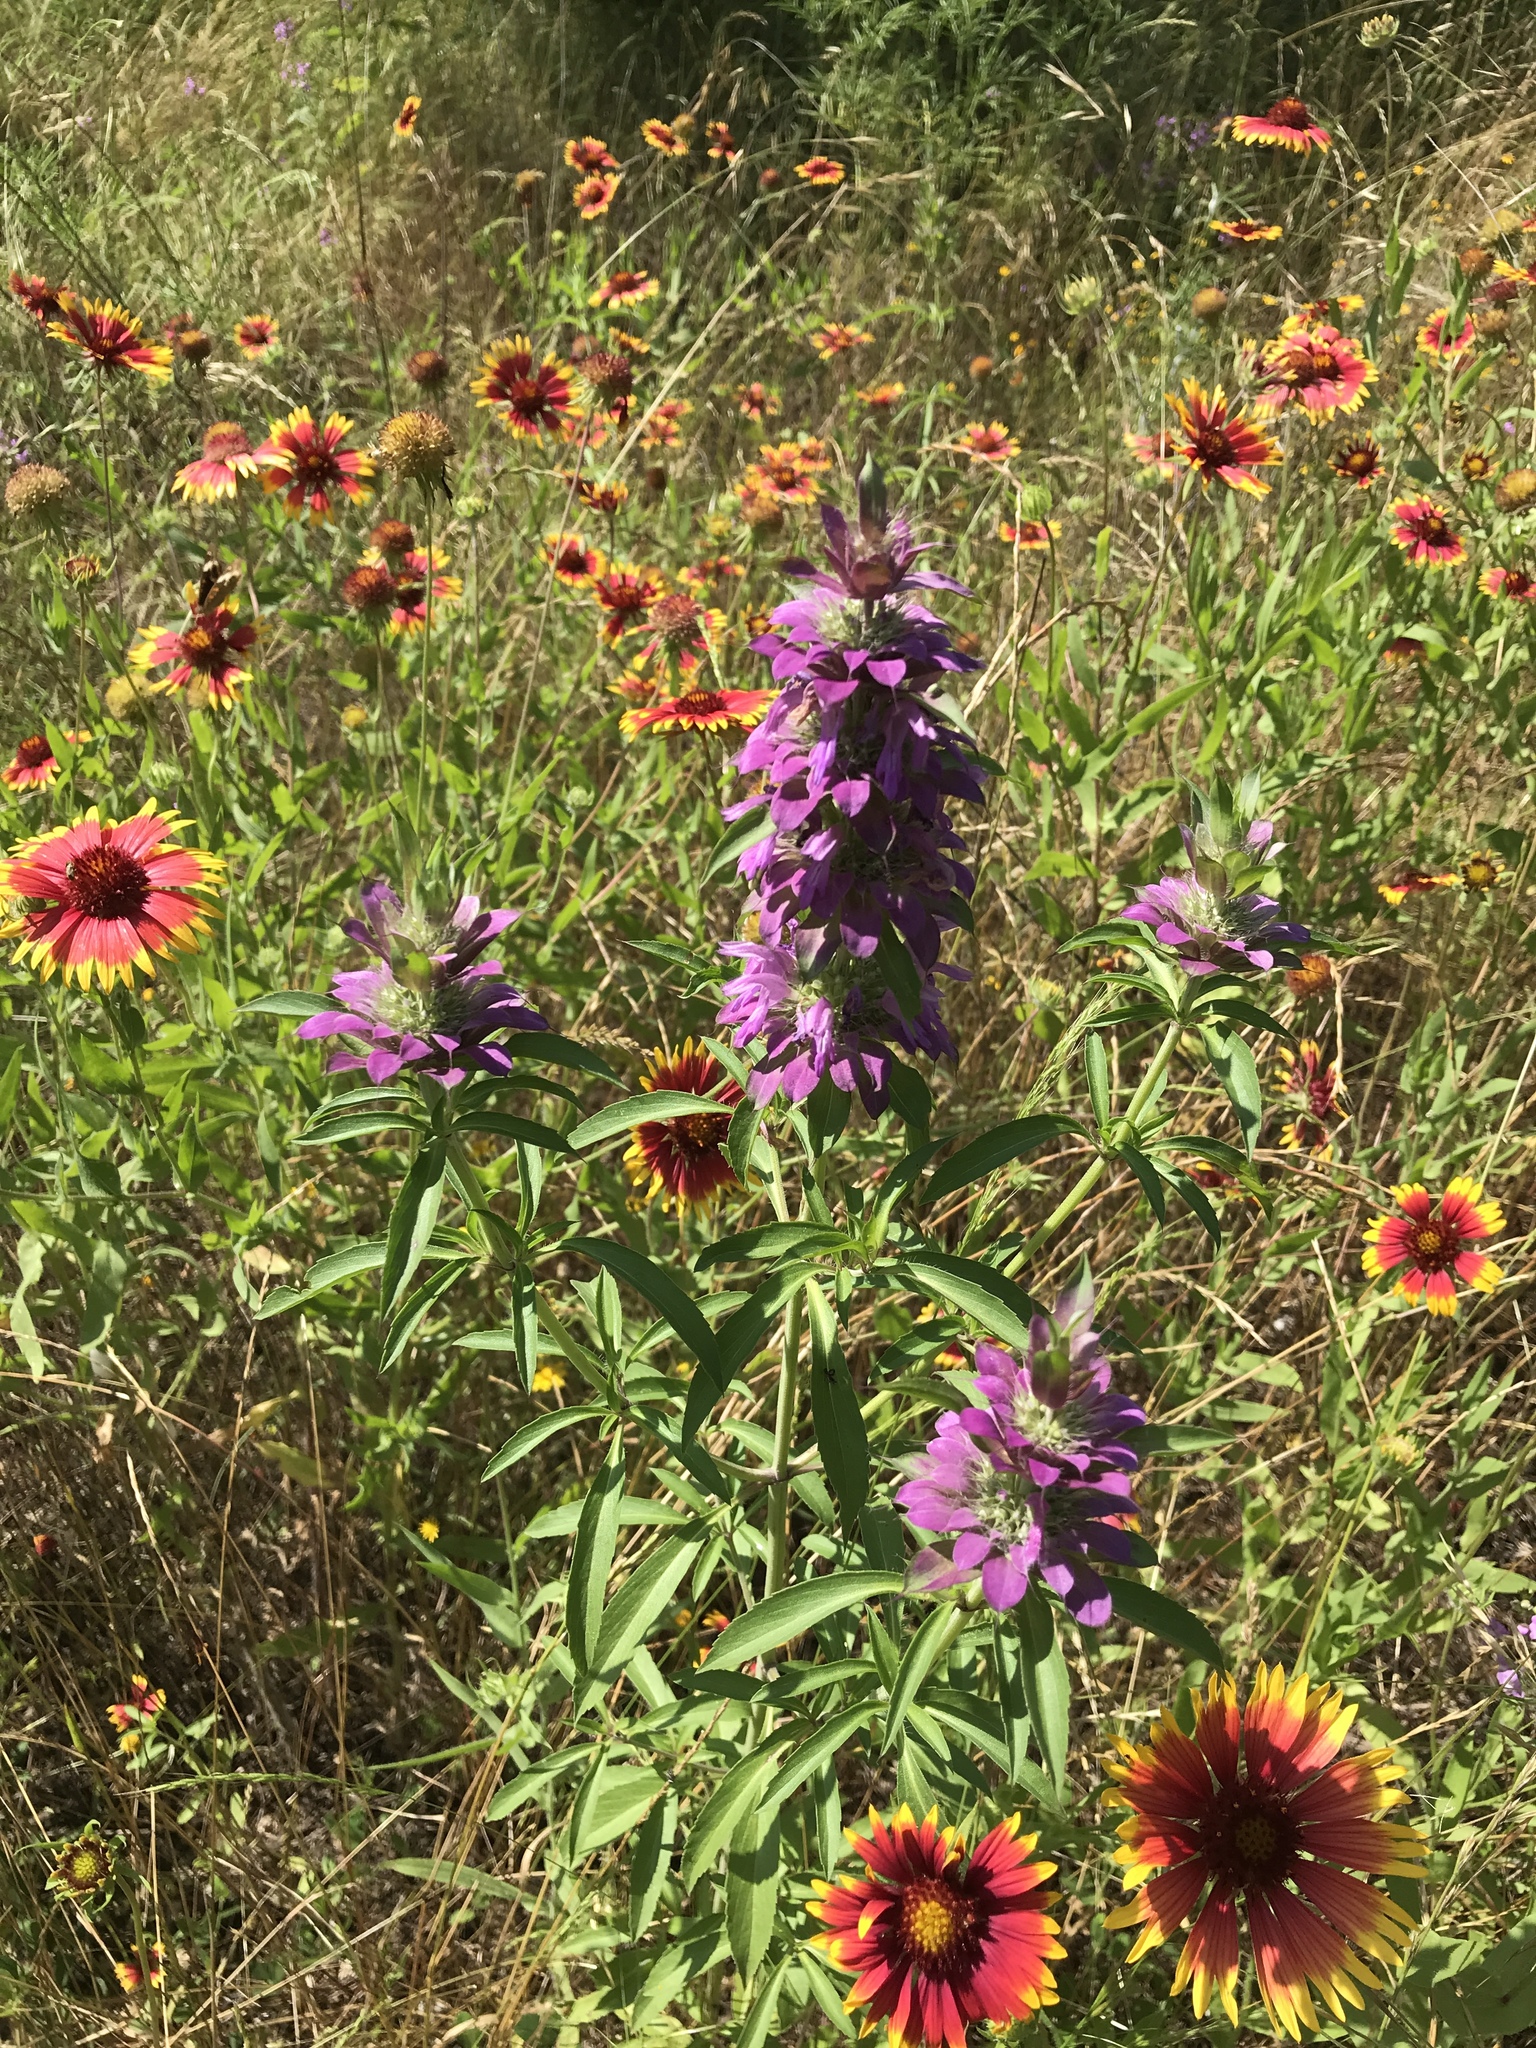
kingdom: Plantae
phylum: Tracheophyta
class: Magnoliopsida
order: Lamiales
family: Lamiaceae
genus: Monarda
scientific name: Monarda citriodora
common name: Lemon beebalm
